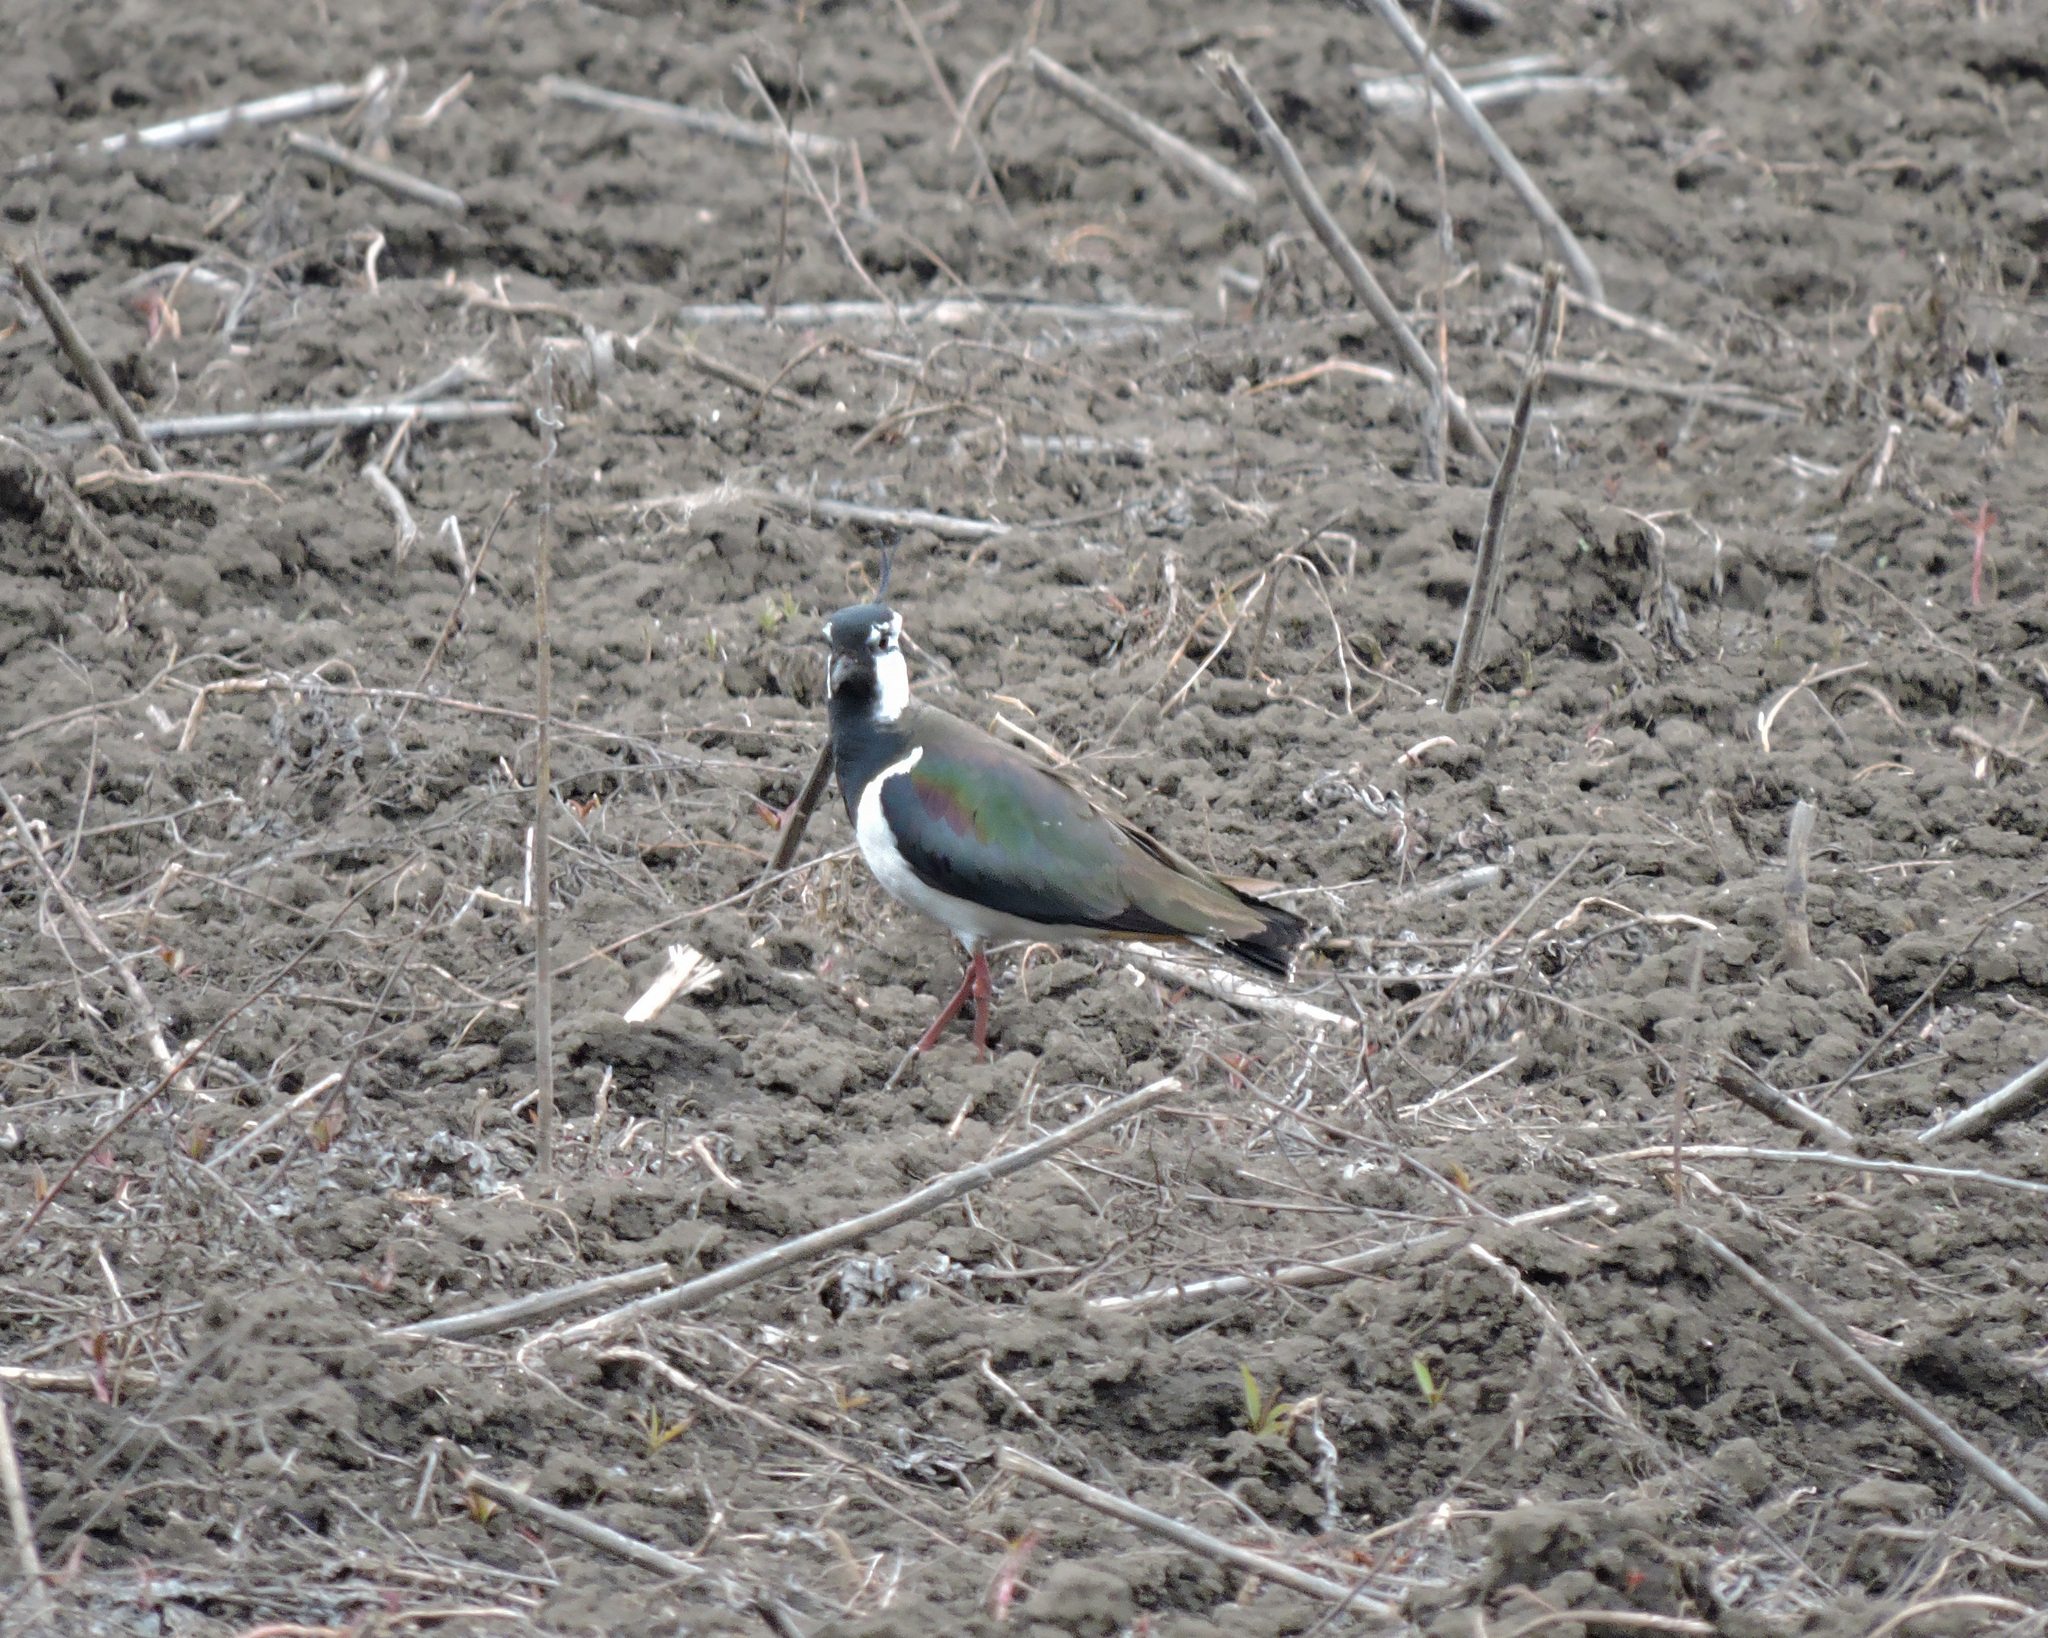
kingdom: Animalia
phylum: Chordata
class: Aves
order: Charadriiformes
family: Charadriidae
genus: Vanellus
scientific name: Vanellus vanellus
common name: Northern lapwing
